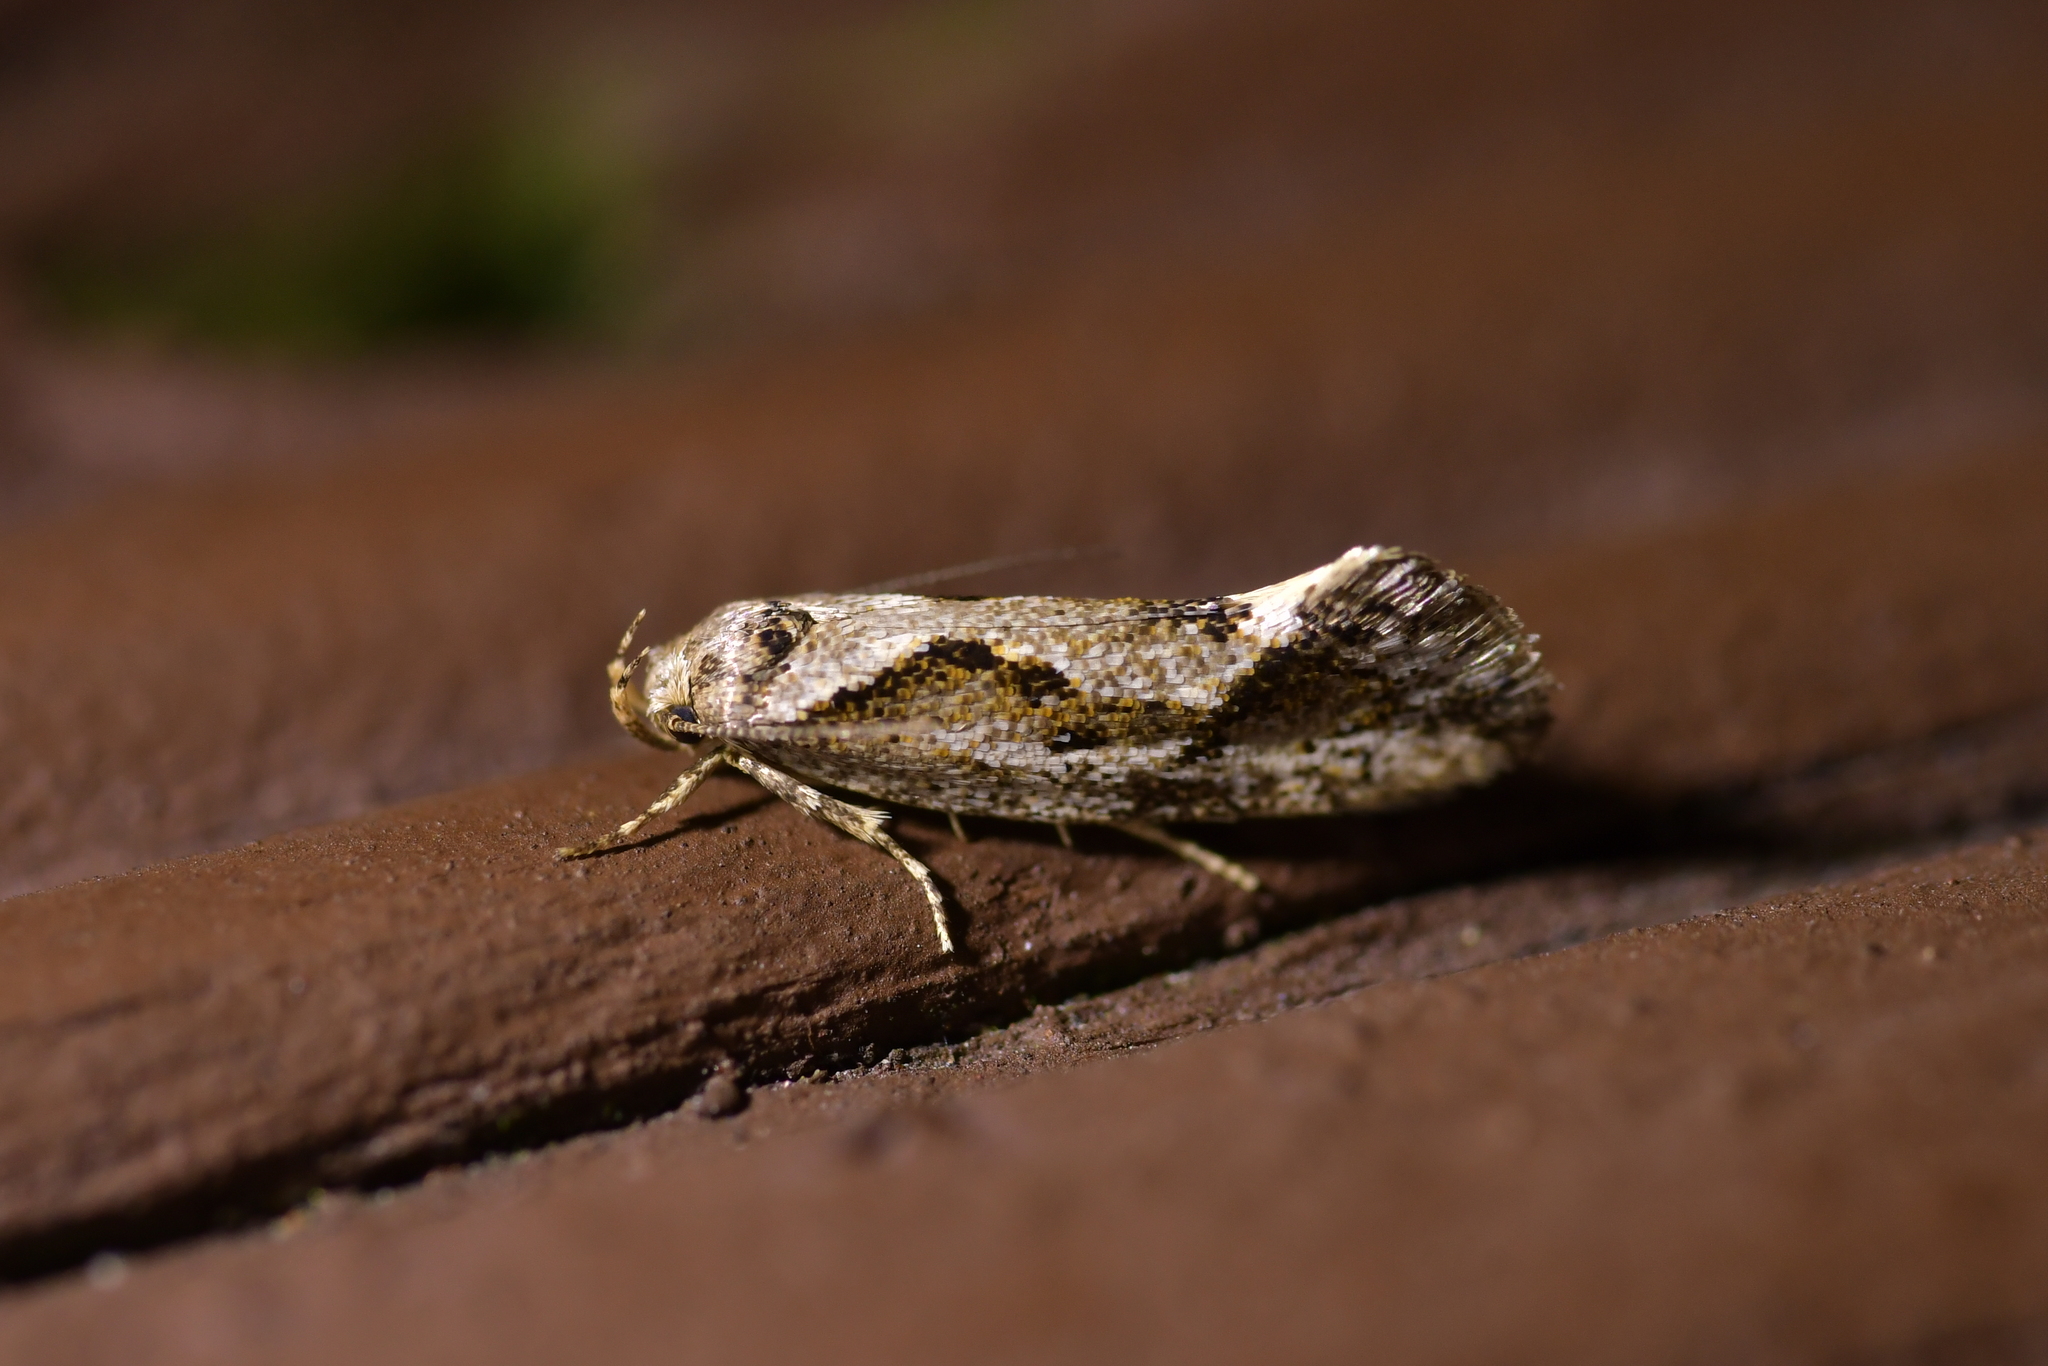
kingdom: Animalia
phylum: Arthropoda
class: Insecta
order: Lepidoptera
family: Oecophoridae
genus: Tingena
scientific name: Tingena hemimochla
